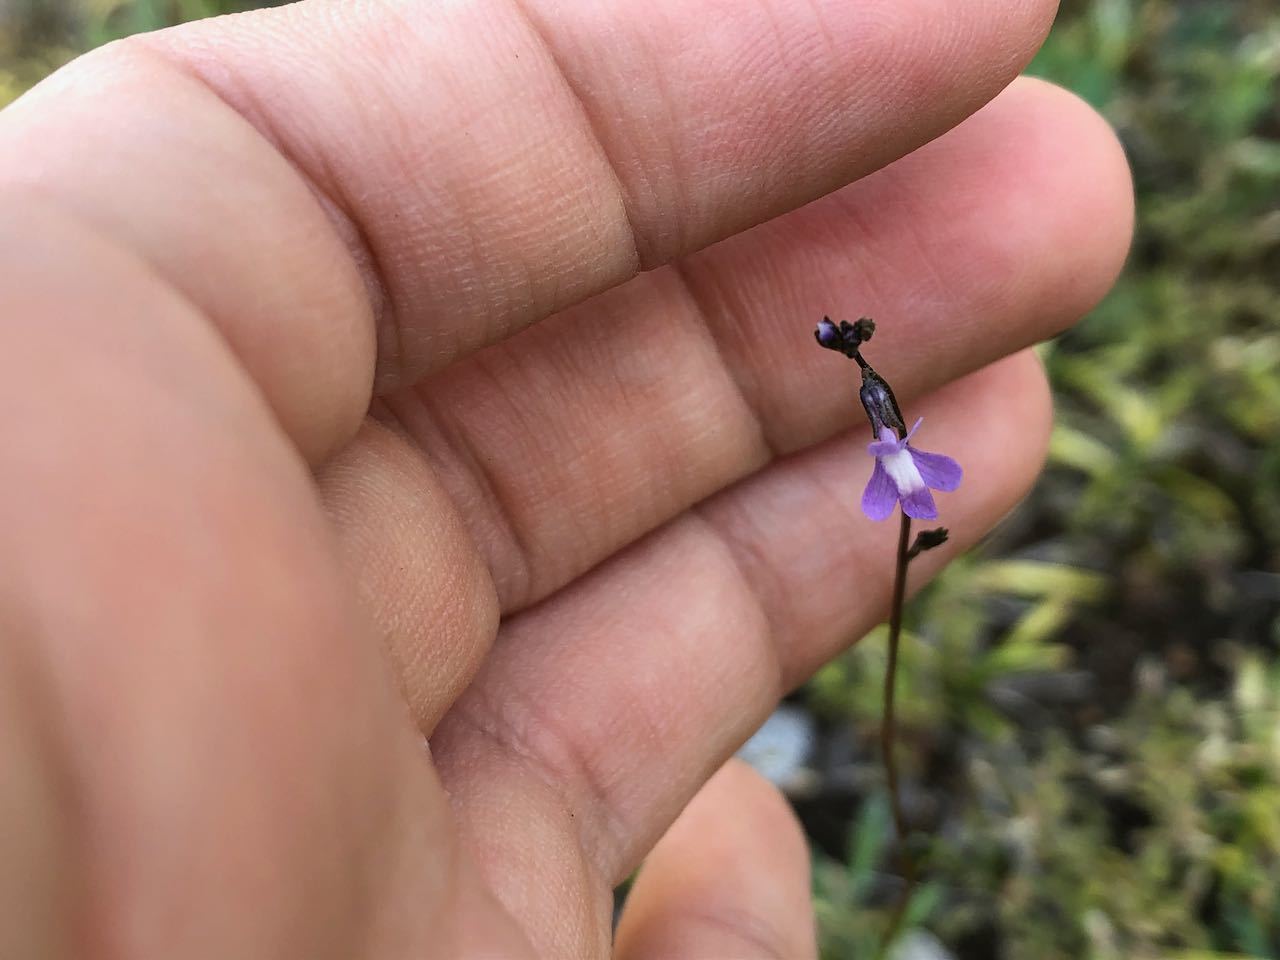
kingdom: Plantae
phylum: Tracheophyta
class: Magnoliopsida
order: Lamiales
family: Plantaginaceae
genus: Nuttallanthus
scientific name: Nuttallanthus canadensis
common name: Blue toadflax
